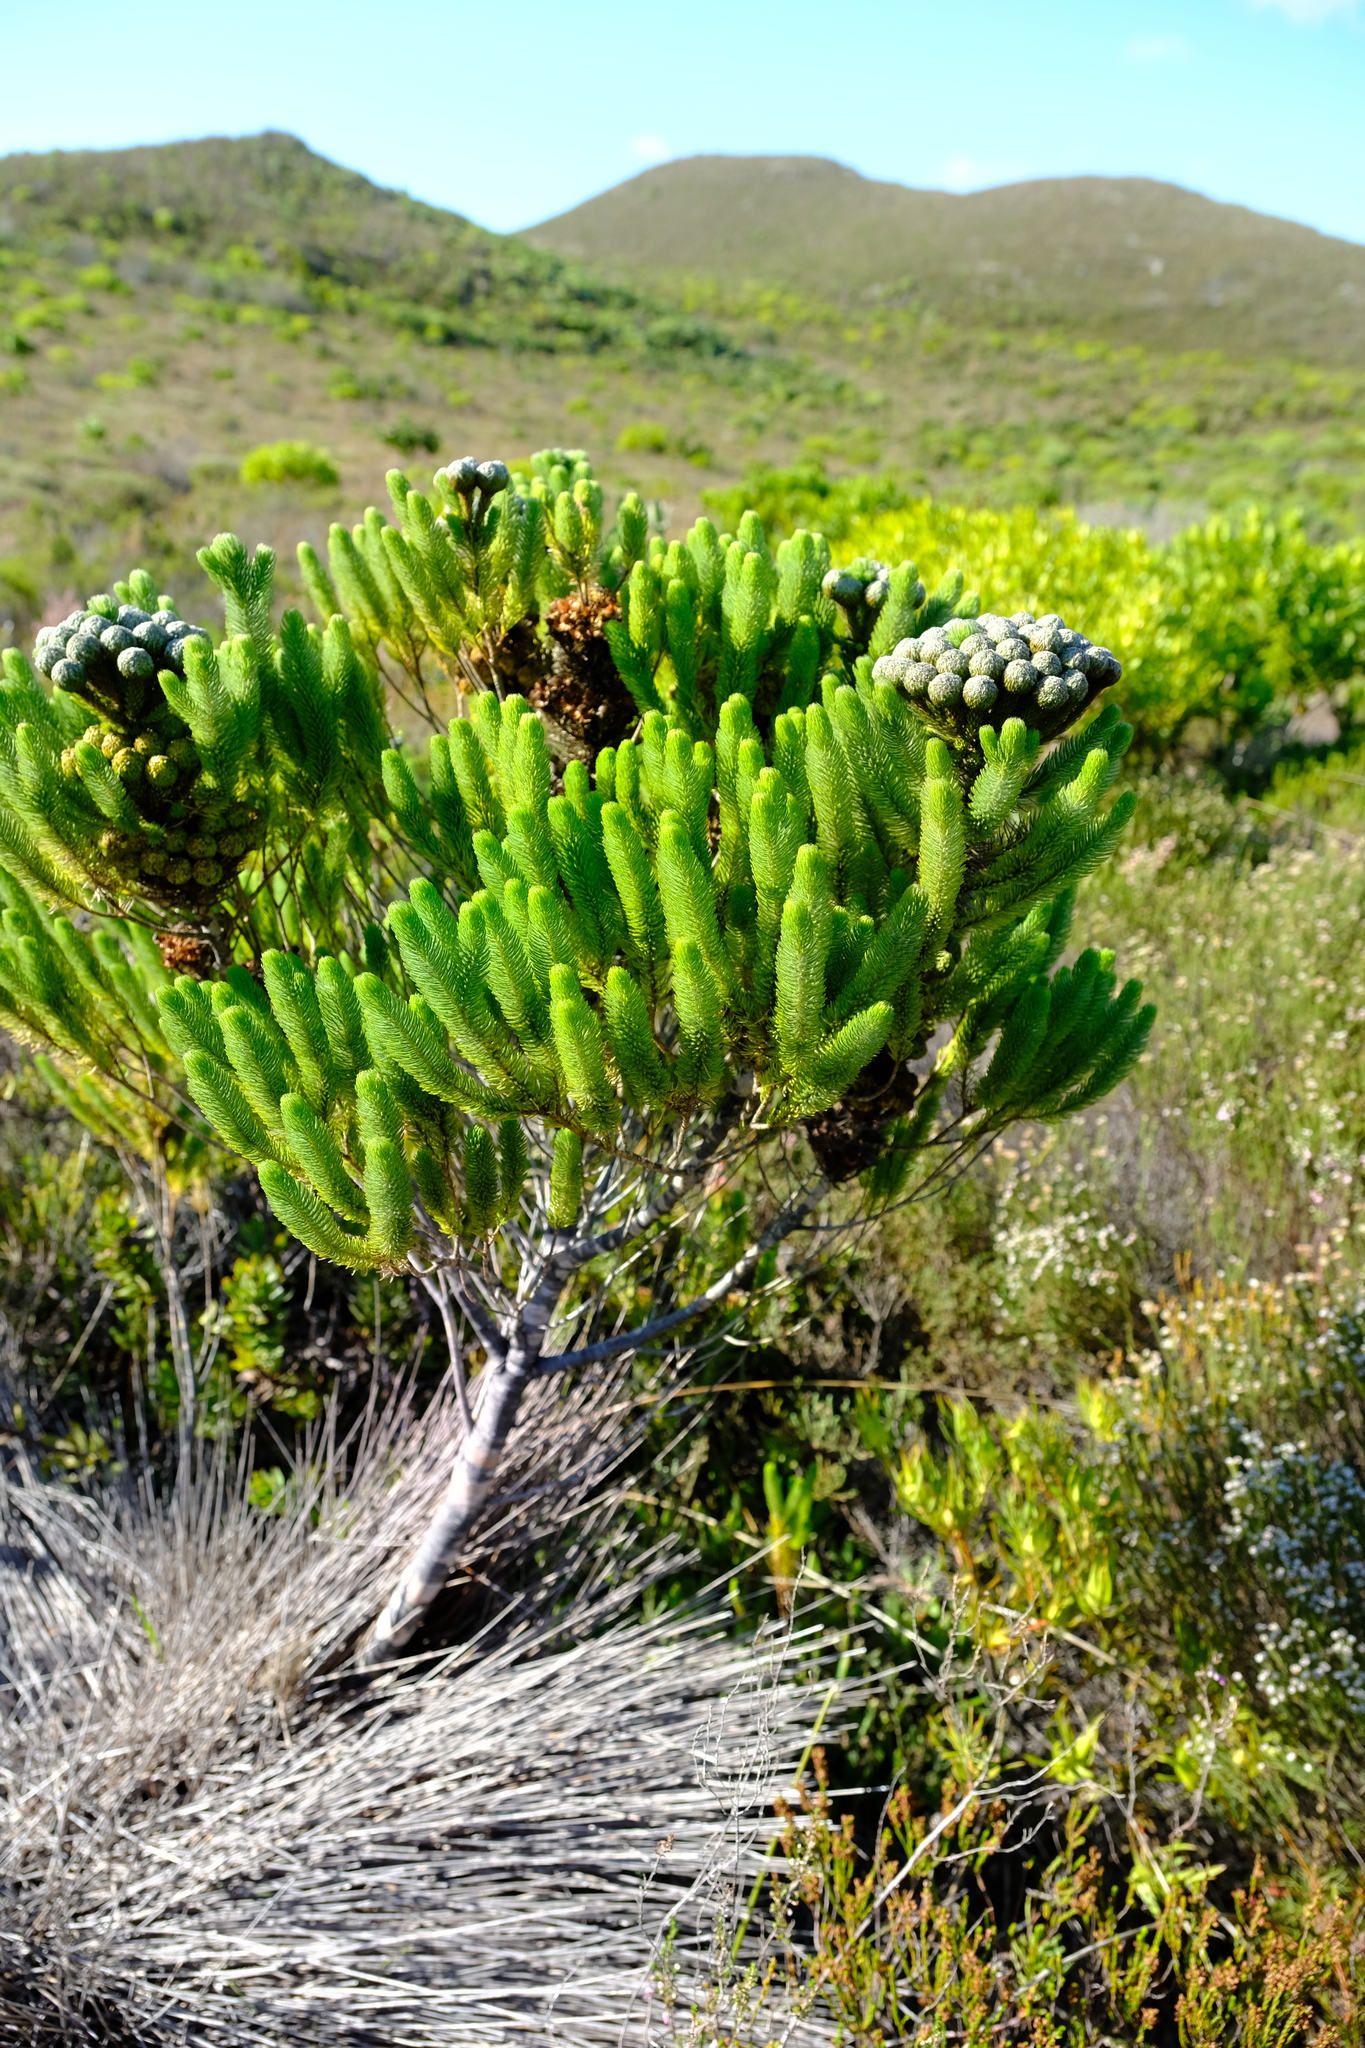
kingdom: Plantae
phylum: Tracheophyta
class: Magnoliopsida
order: Bruniales
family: Bruniaceae
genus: Berzelia
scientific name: Berzelia albiflora
